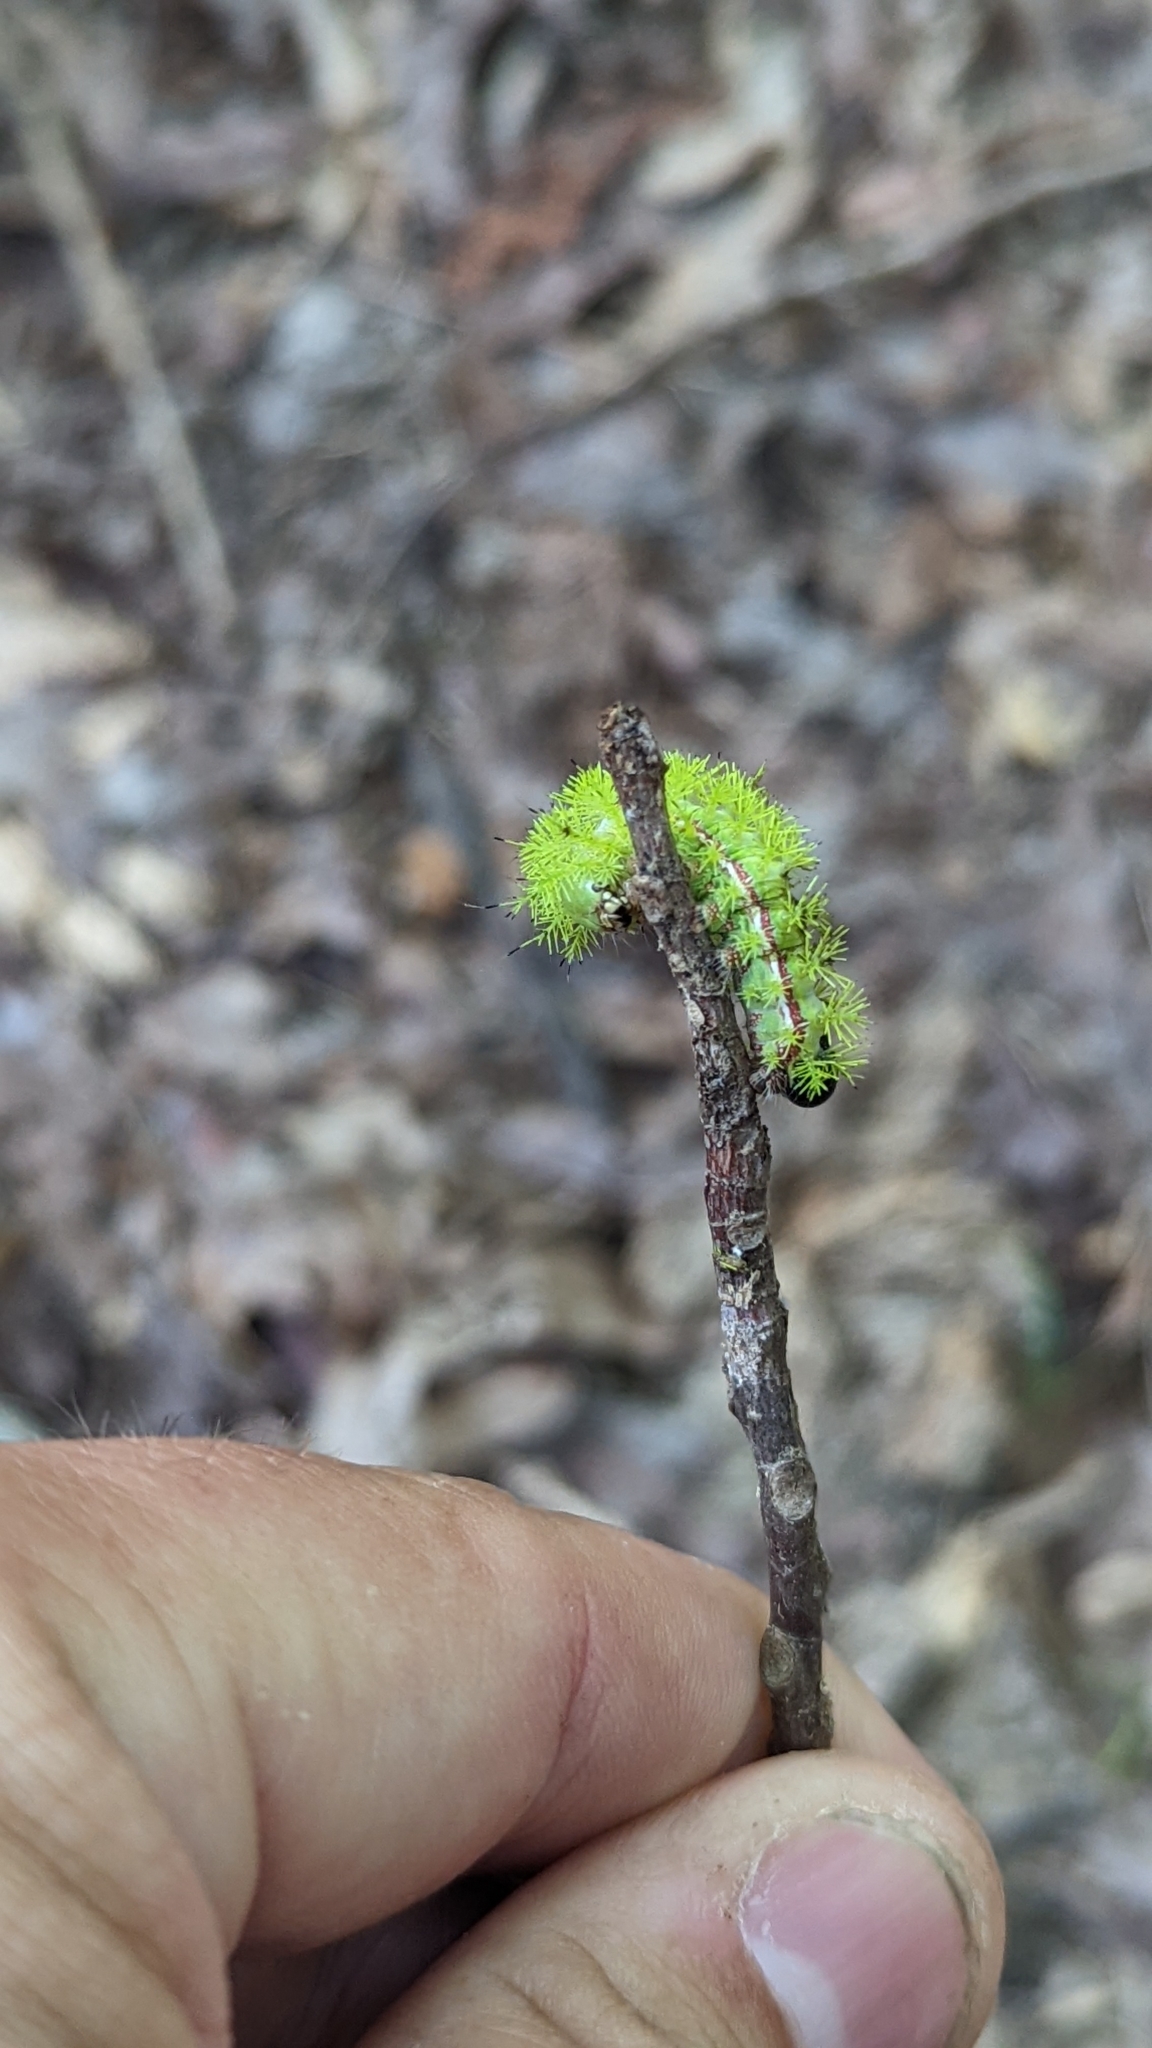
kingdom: Animalia
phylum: Arthropoda
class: Insecta
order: Lepidoptera
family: Saturniidae
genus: Automeris
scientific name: Automeris io
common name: Io moth
